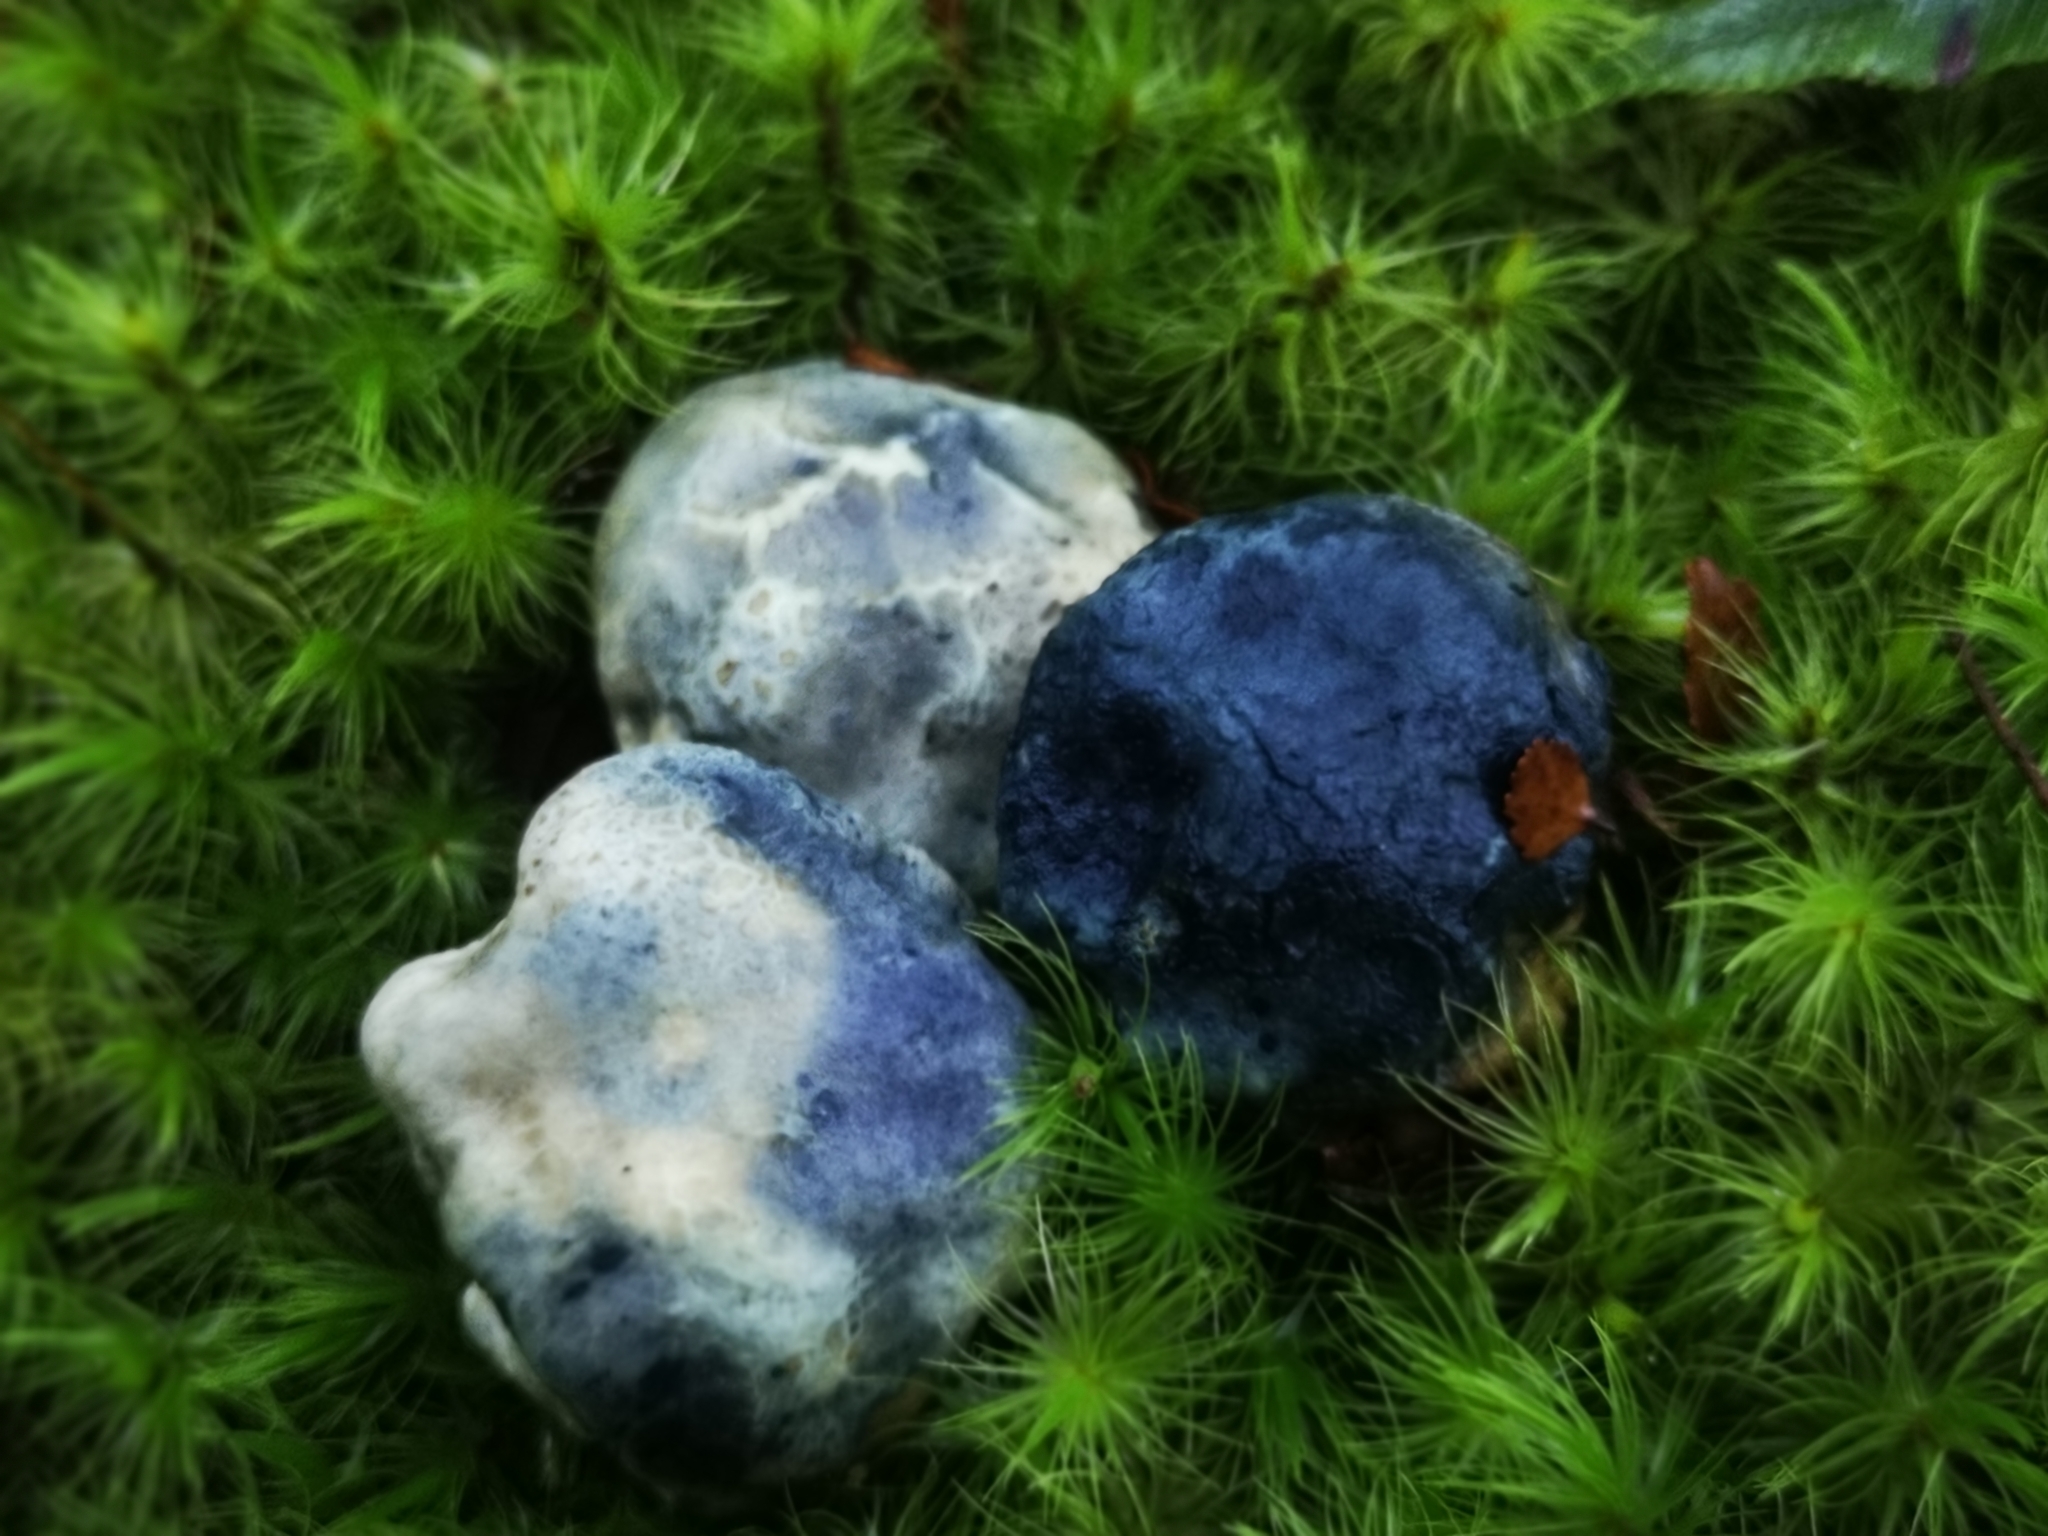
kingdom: Fungi
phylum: Basidiomycota
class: Agaricomycetes
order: Boletales
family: Boletaceae
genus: Leccinum
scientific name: Leccinum pachyderme
